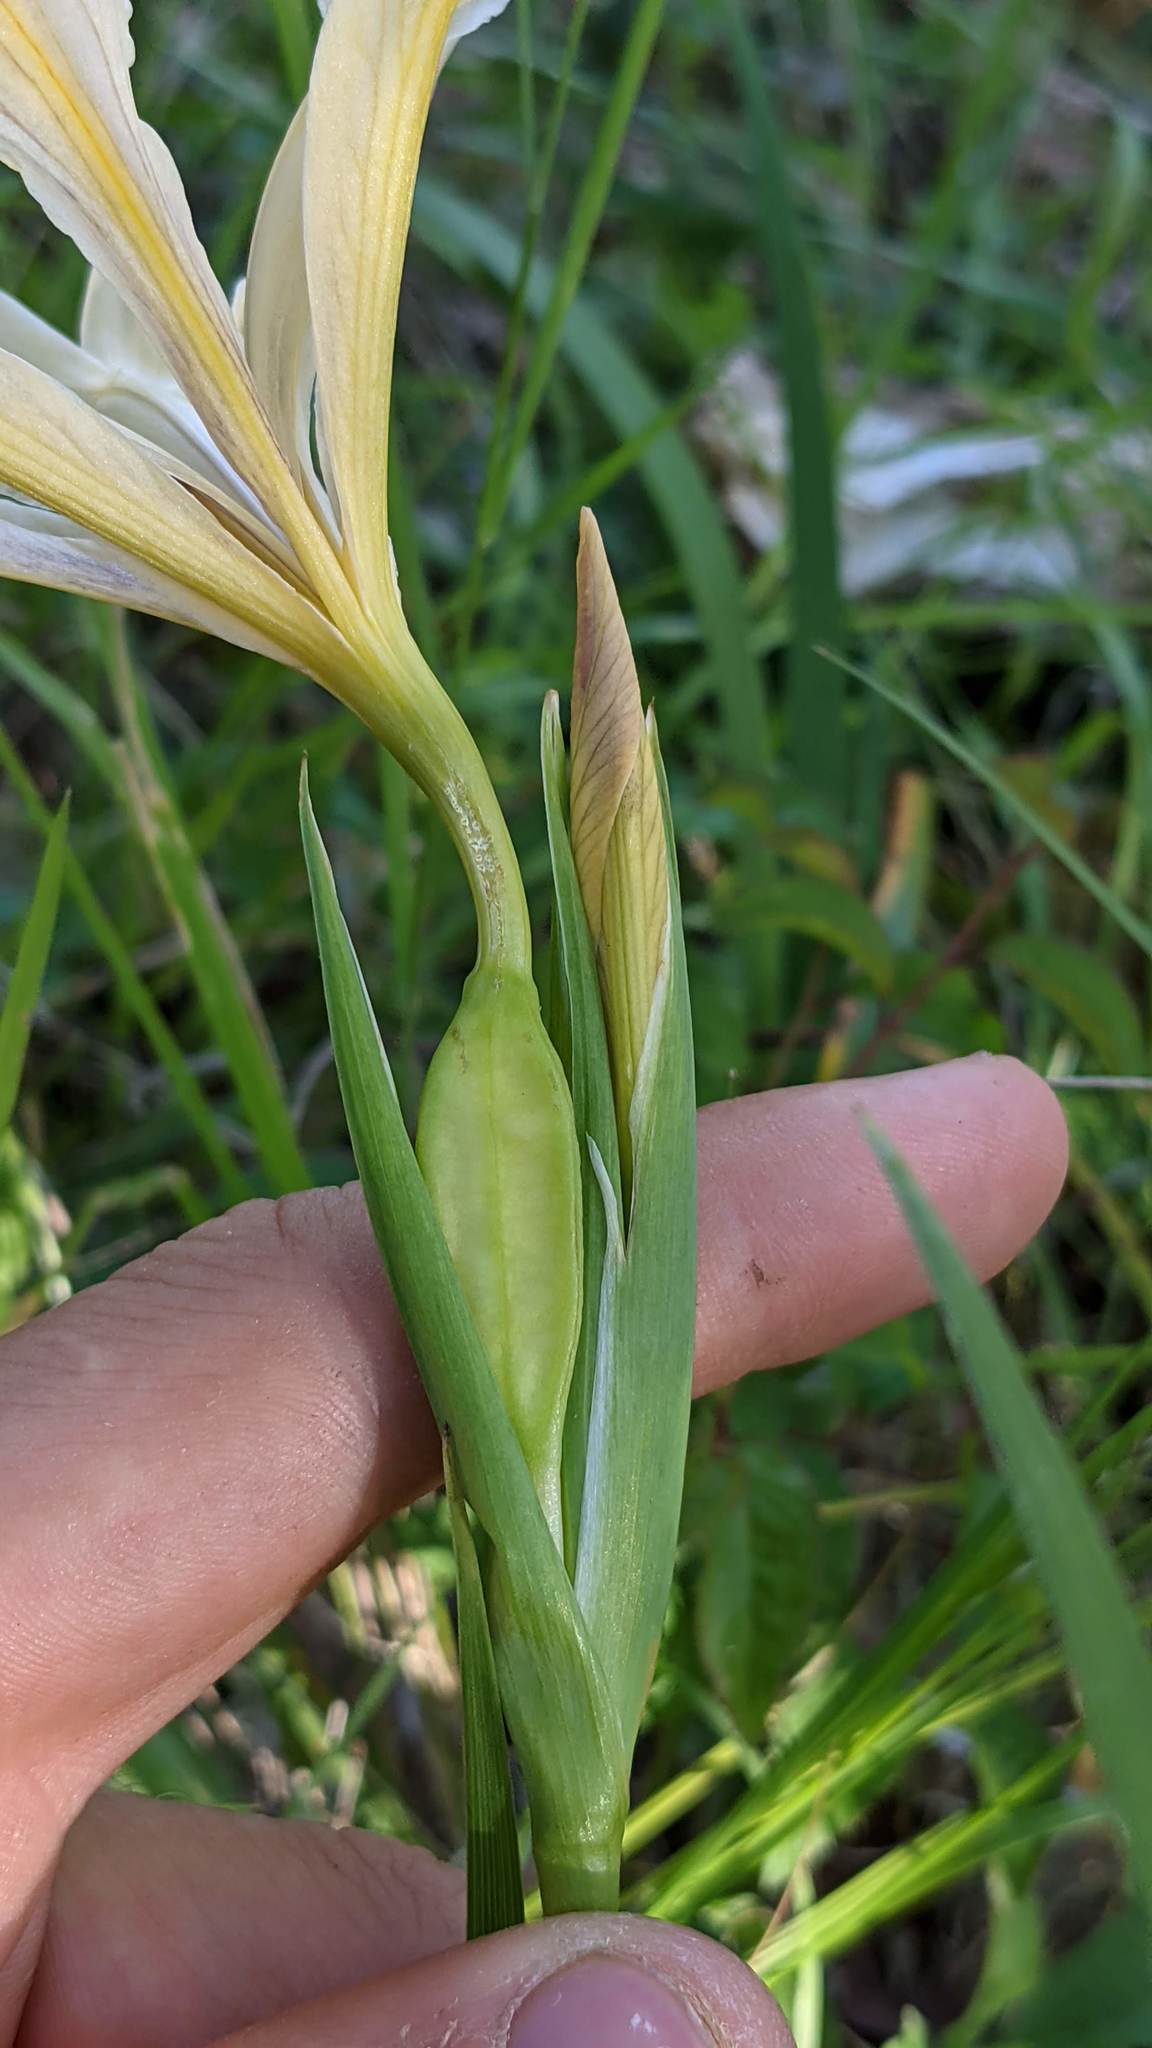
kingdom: Plantae
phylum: Tracheophyta
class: Liliopsida
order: Asparagales
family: Iridaceae
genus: Iris
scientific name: Iris douglasiana
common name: Marin iris
